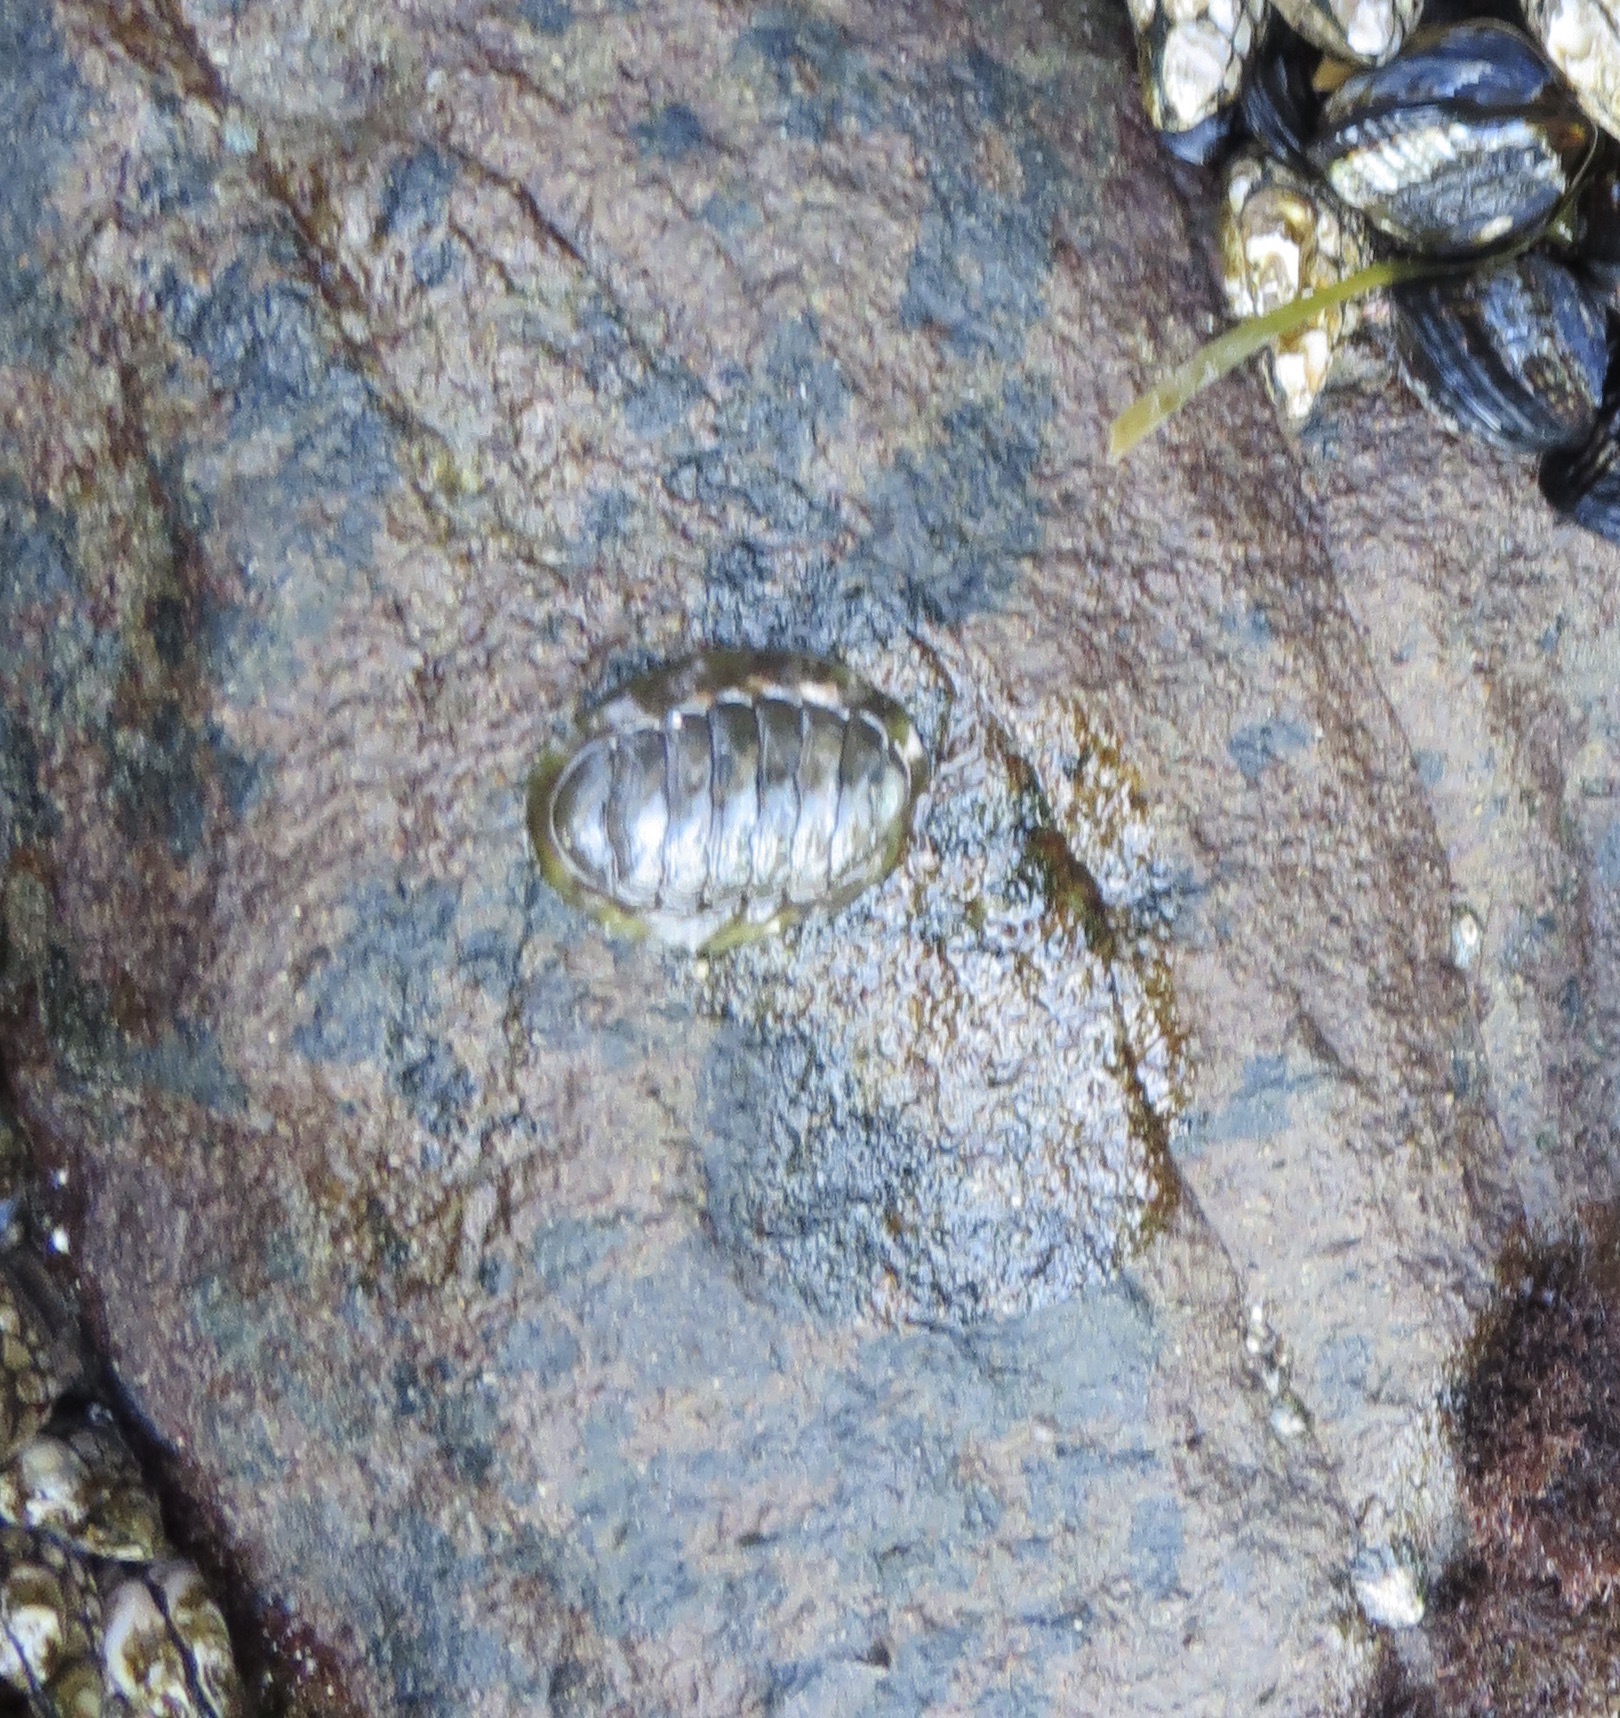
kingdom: Animalia
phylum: Mollusca
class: Polyplacophora
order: Chitonida
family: Tonicellidae
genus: Cyanoplax
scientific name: Cyanoplax hartwegii
